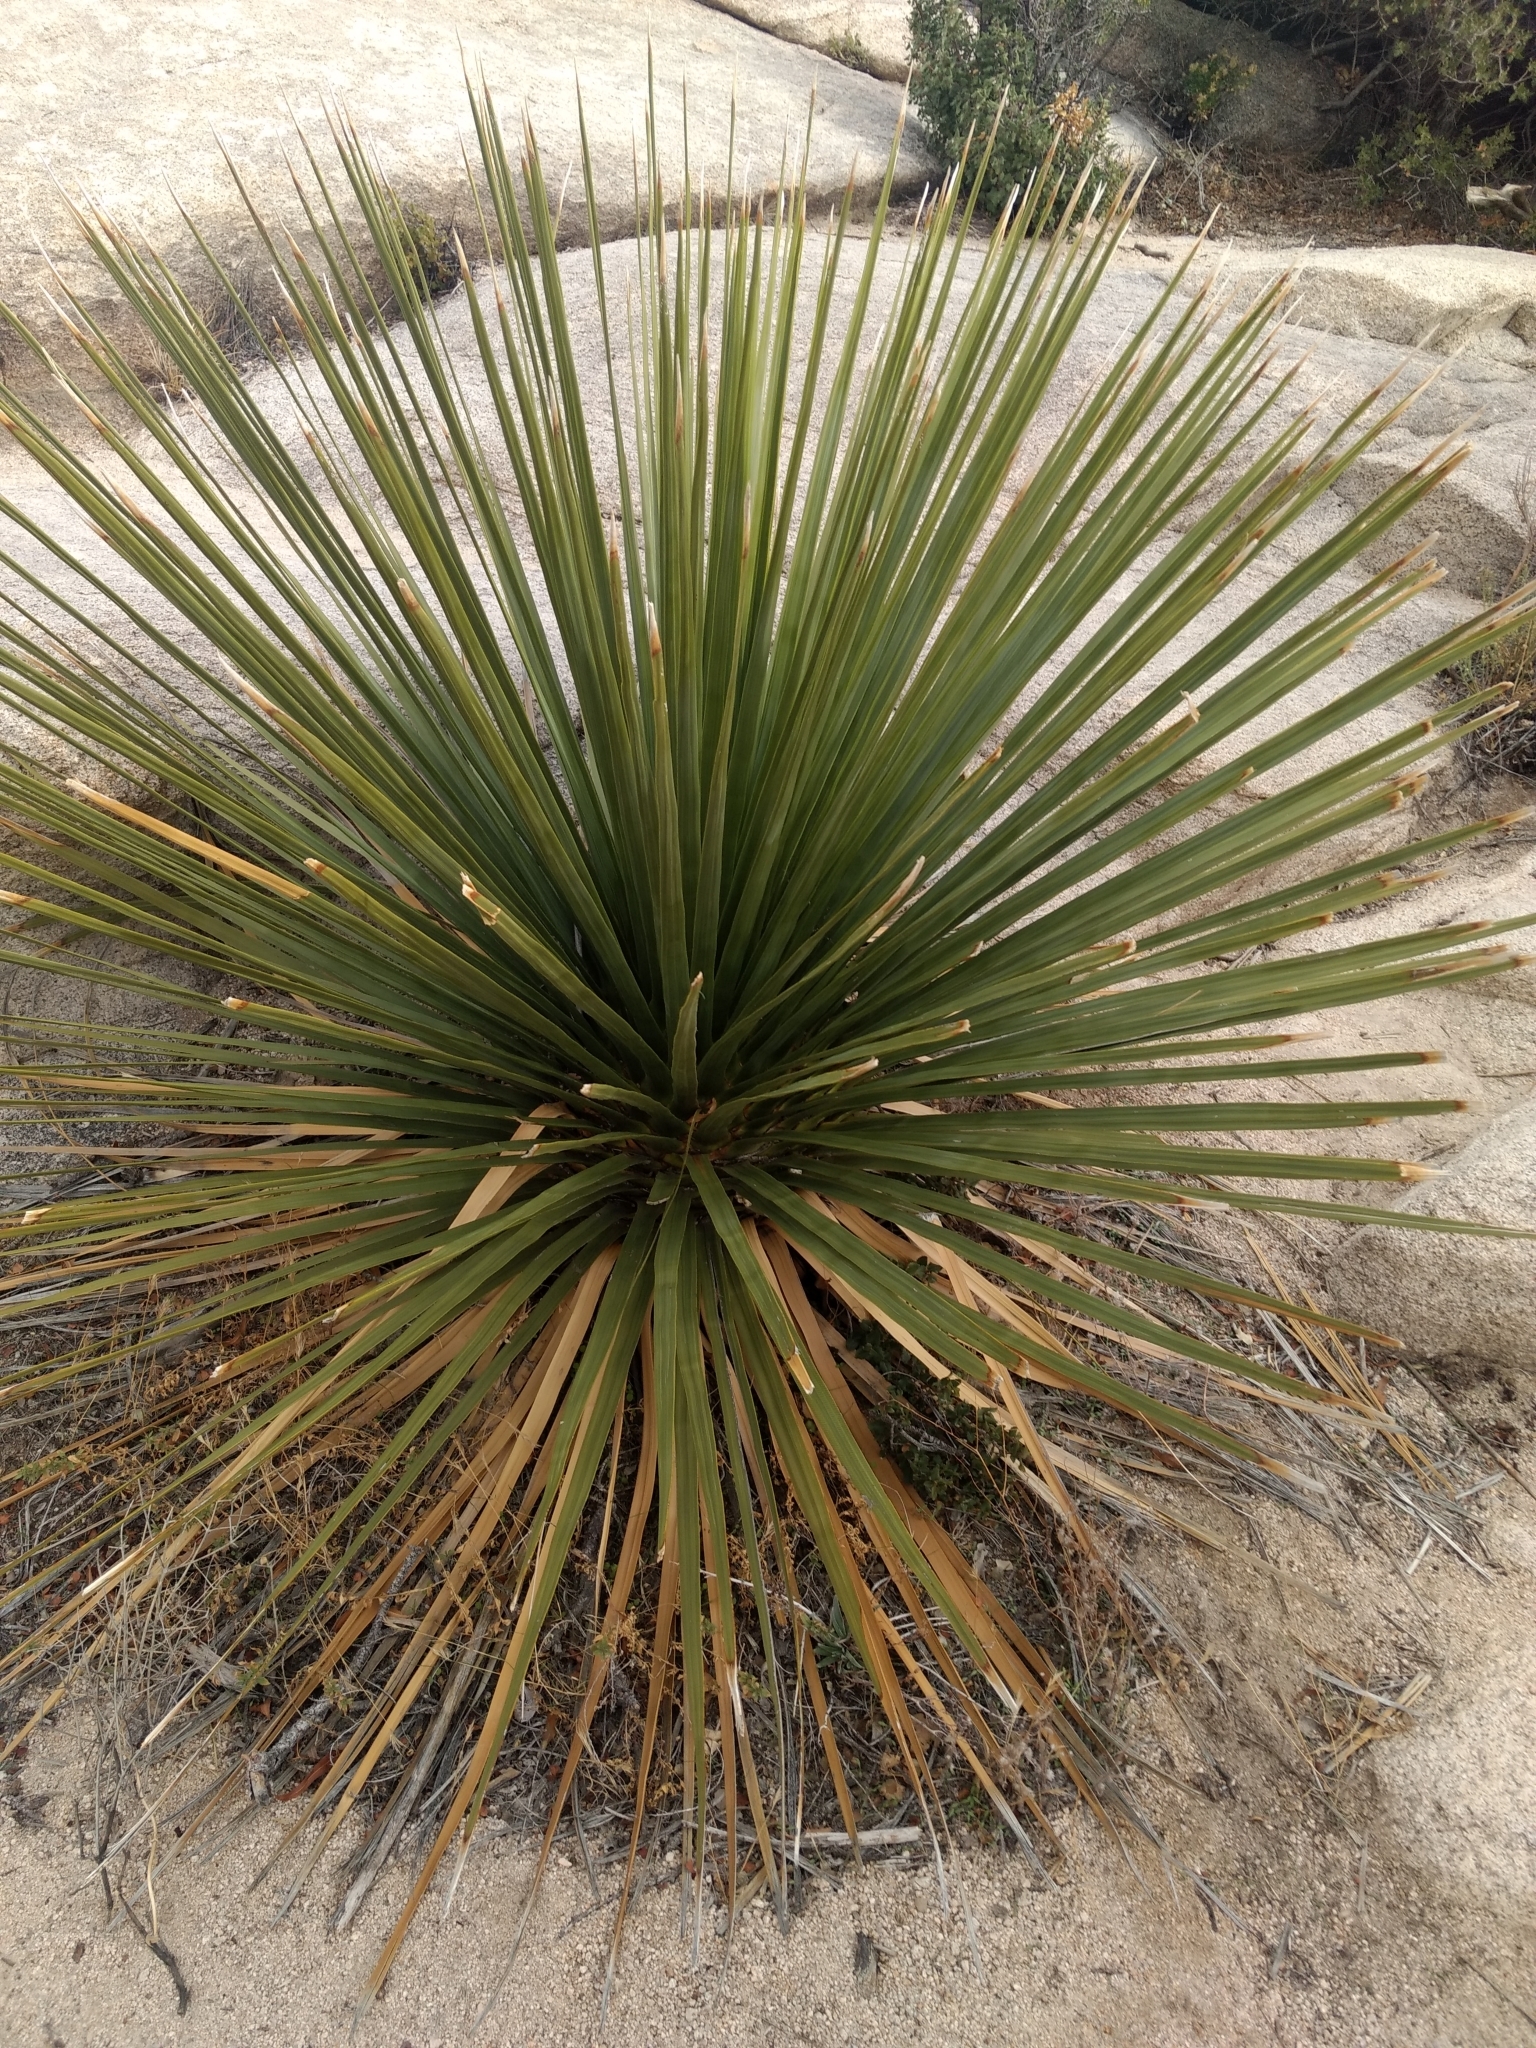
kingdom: Plantae
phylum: Tracheophyta
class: Liliopsida
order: Asparagales
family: Asparagaceae
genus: Nolina
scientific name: Nolina parryi
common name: Parry nolina
